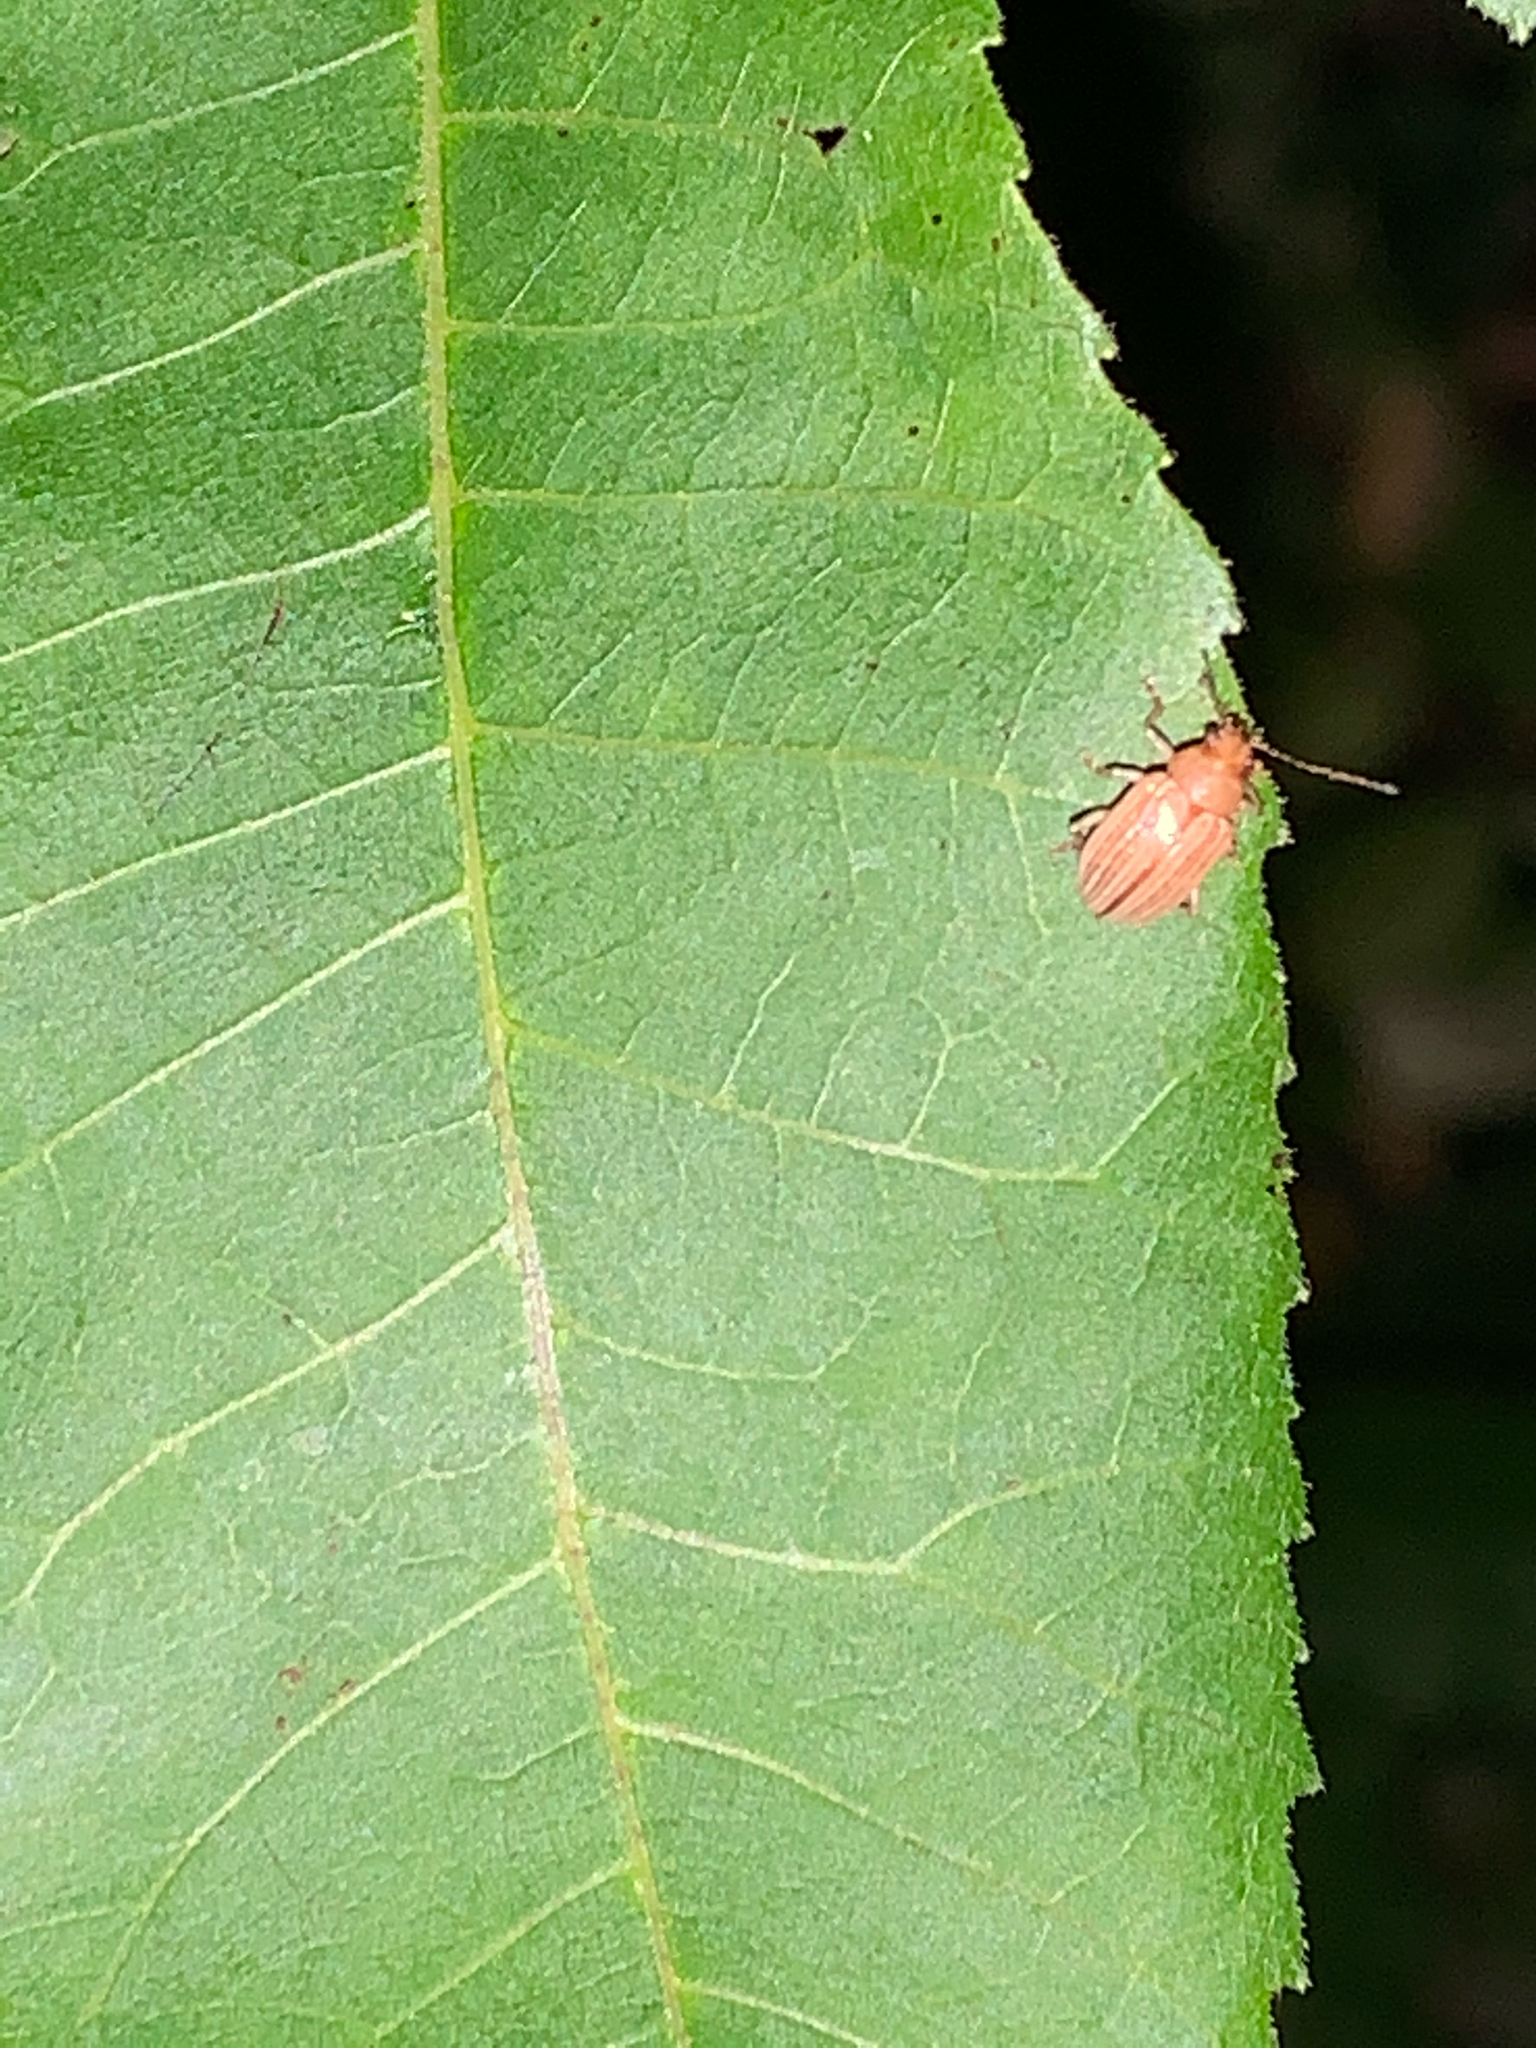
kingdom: Animalia
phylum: Arthropoda
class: Insecta
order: Coleoptera
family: Chrysomelidae
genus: Colaspis
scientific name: Colaspis brunnea
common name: Grape colaspis
